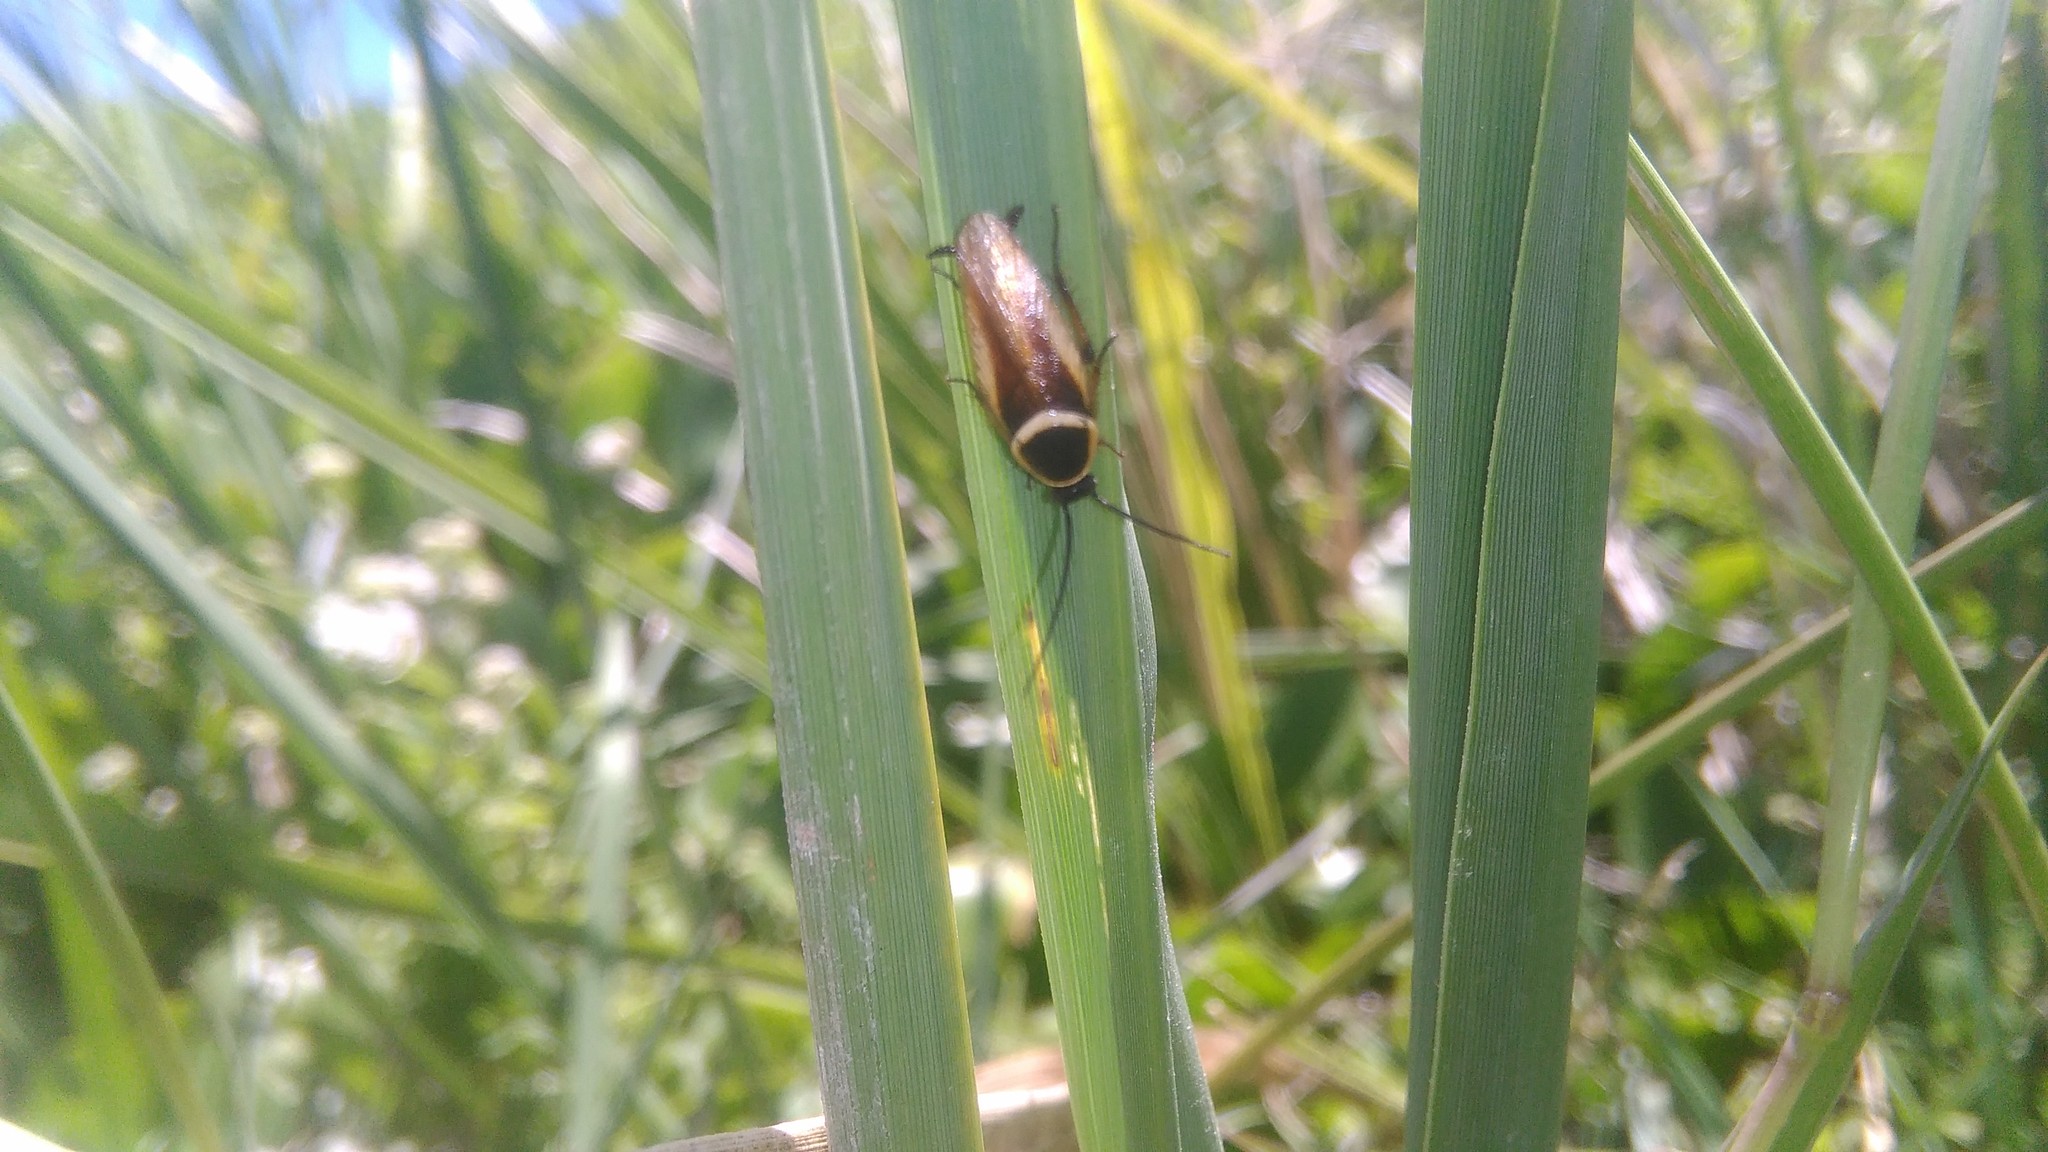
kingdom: Animalia
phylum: Arthropoda
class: Insecta
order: Blattodea
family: Ectobiidae
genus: Pseudomops
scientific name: Pseudomops neglectus
